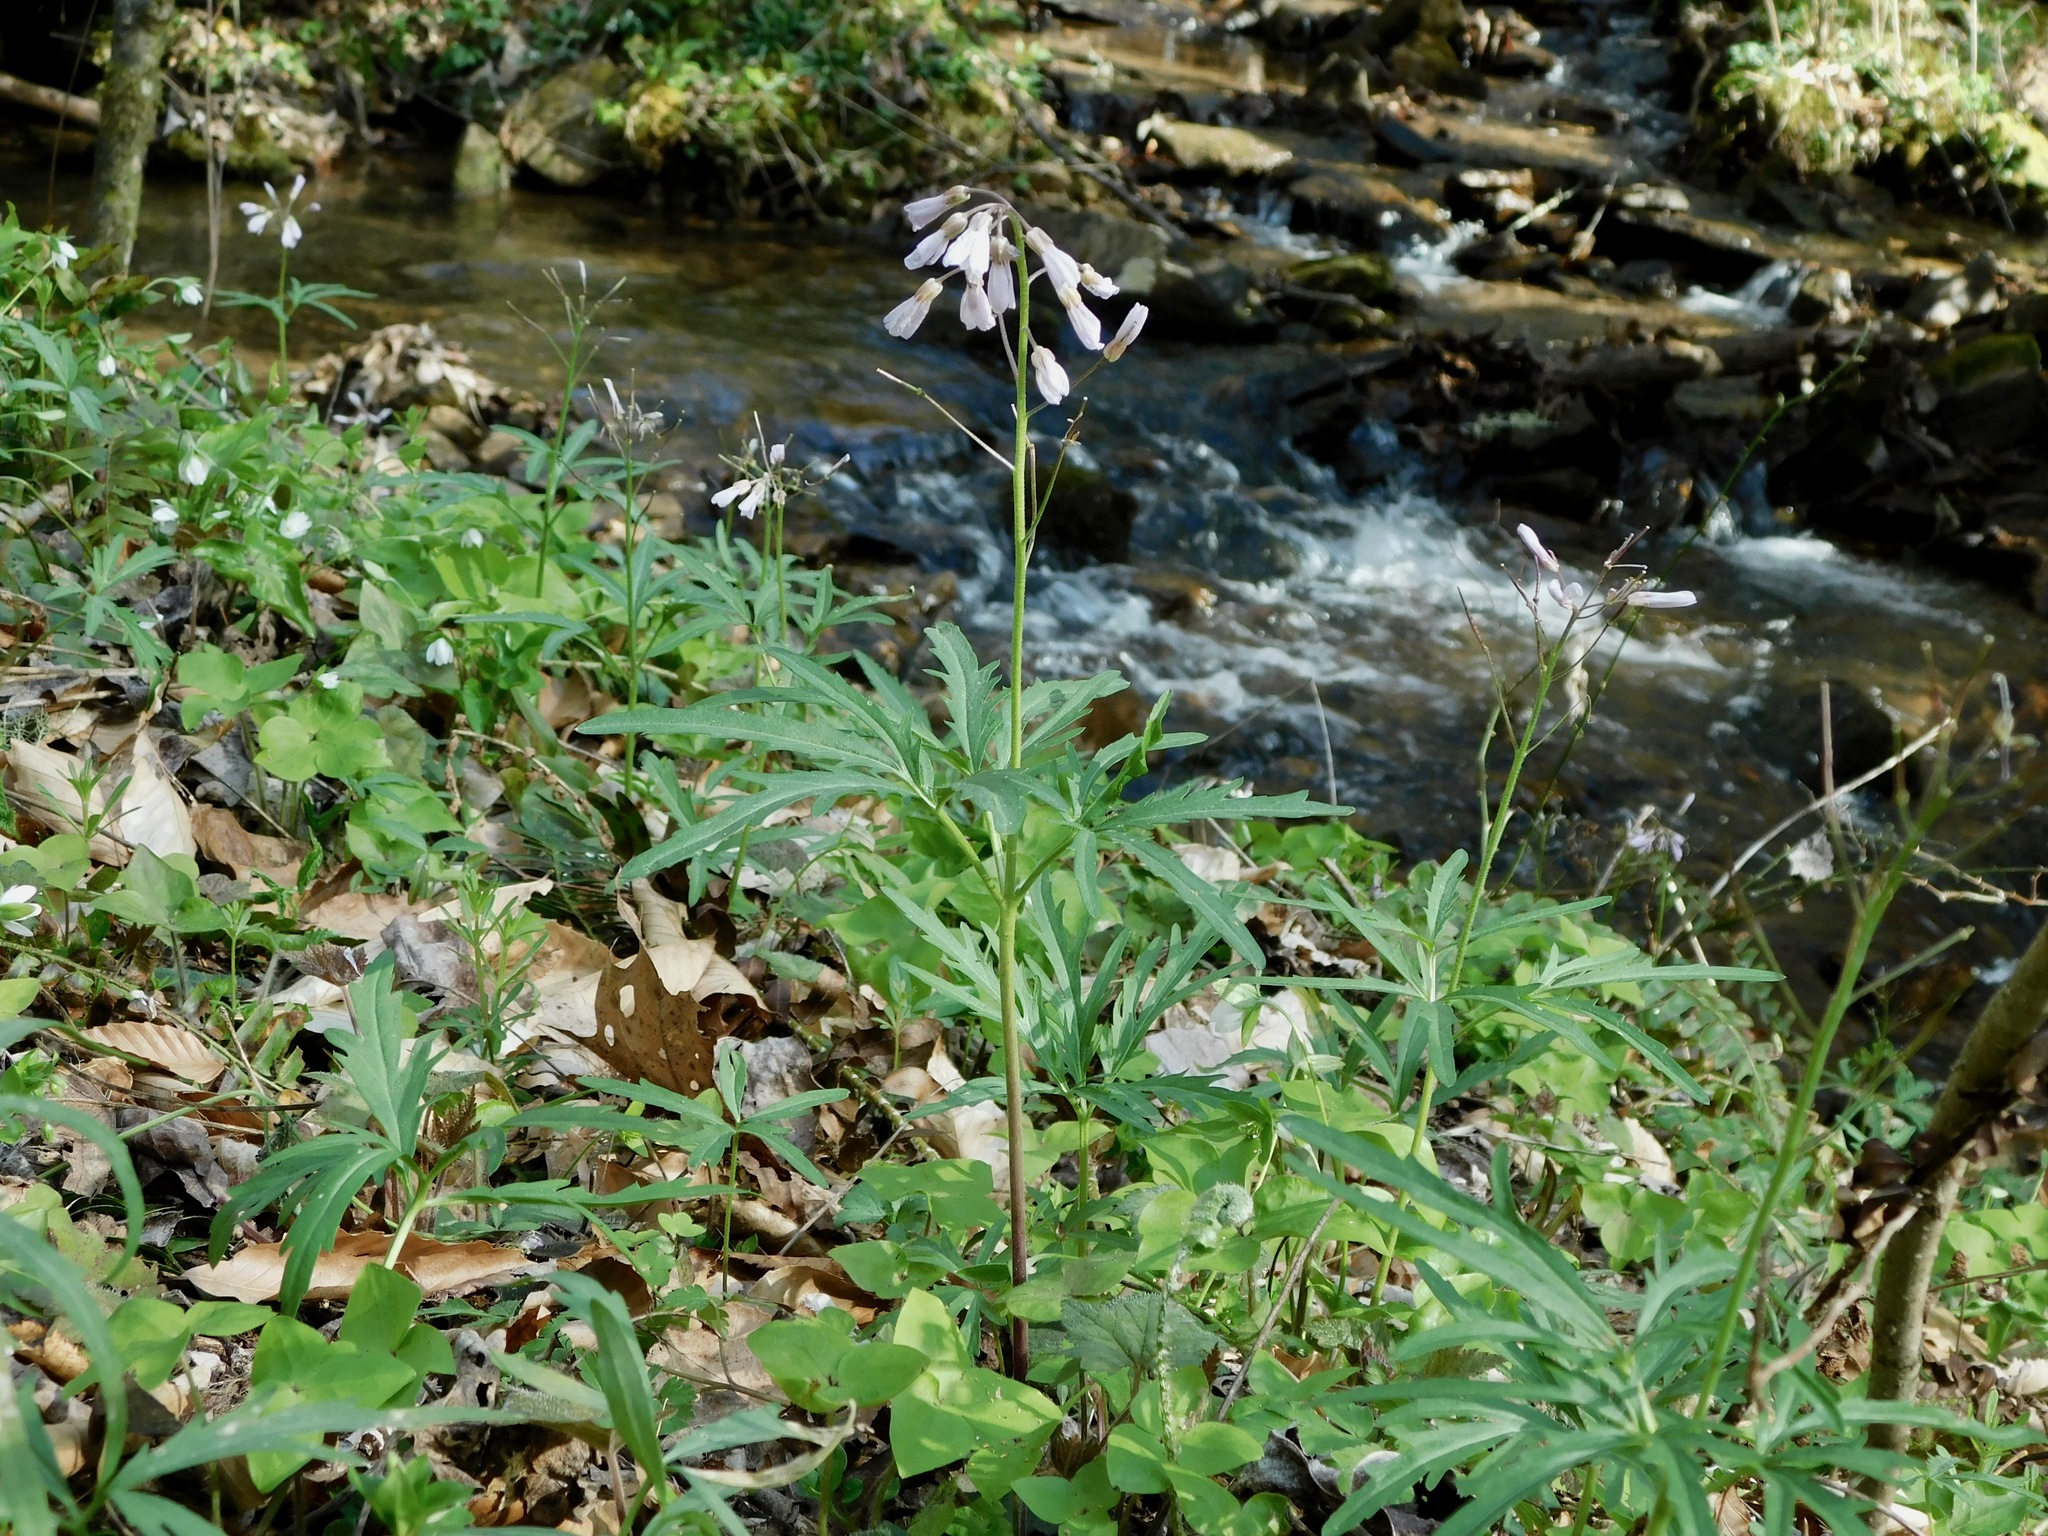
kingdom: Plantae
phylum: Tracheophyta
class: Magnoliopsida
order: Brassicales
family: Brassicaceae
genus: Cardamine
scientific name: Cardamine concatenata
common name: Cut-leaf toothcup
